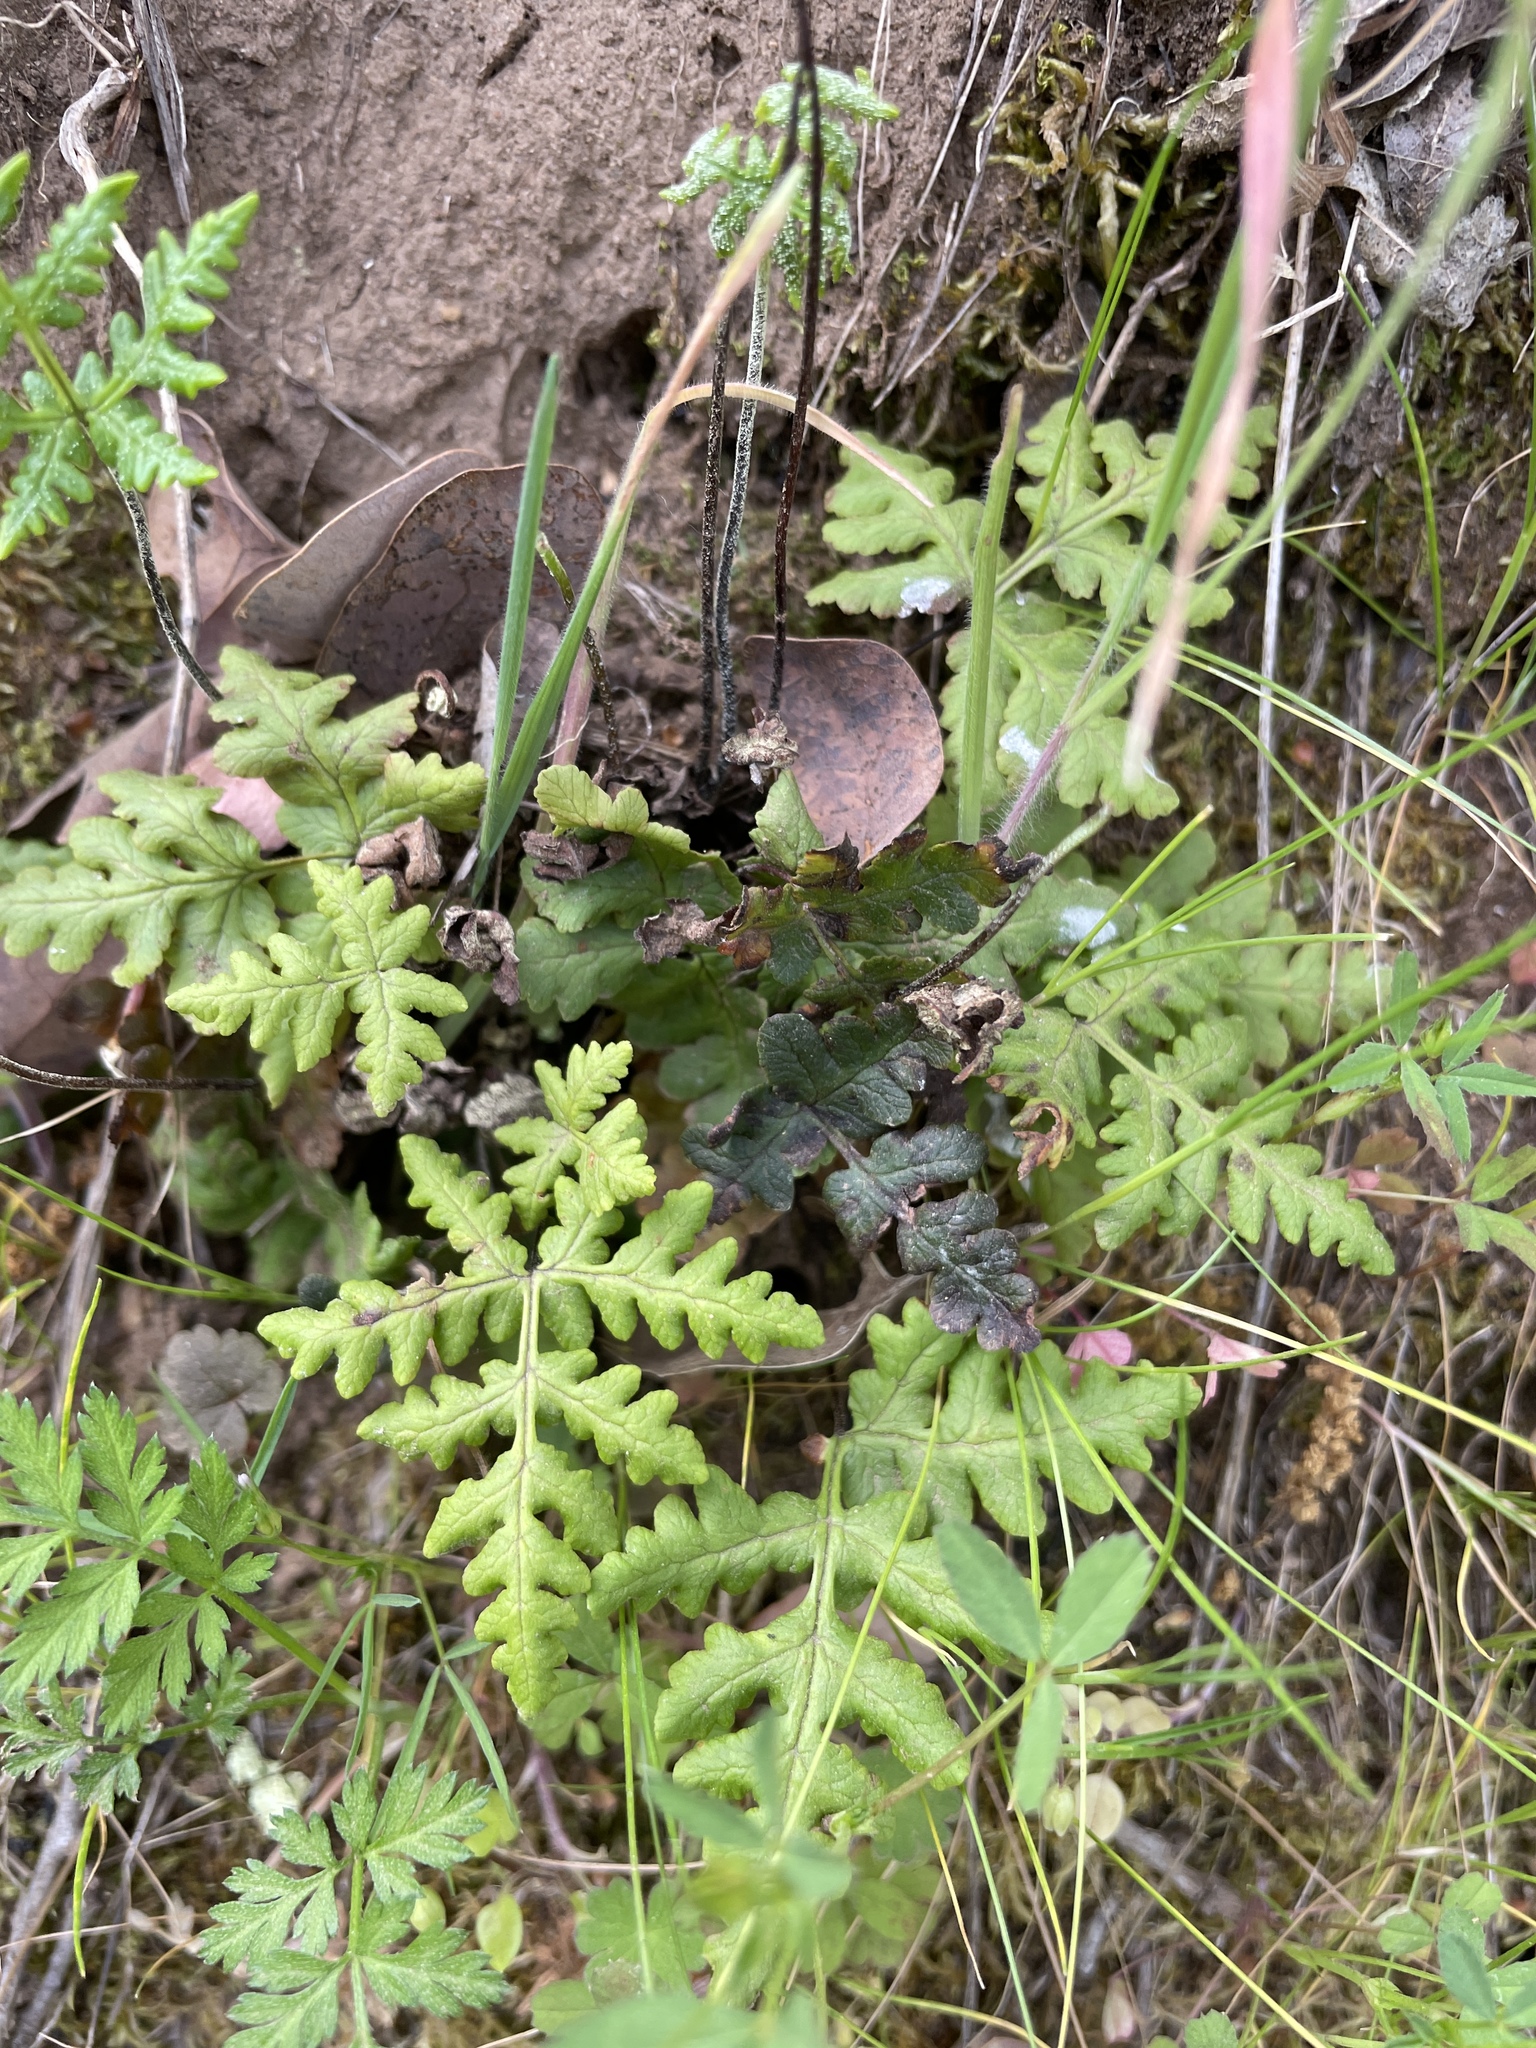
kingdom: Plantae
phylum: Tracheophyta
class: Polypodiopsida
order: Polypodiales
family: Pteridaceae
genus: Pentagramma
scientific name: Pentagramma triangularis
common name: Gold fern
